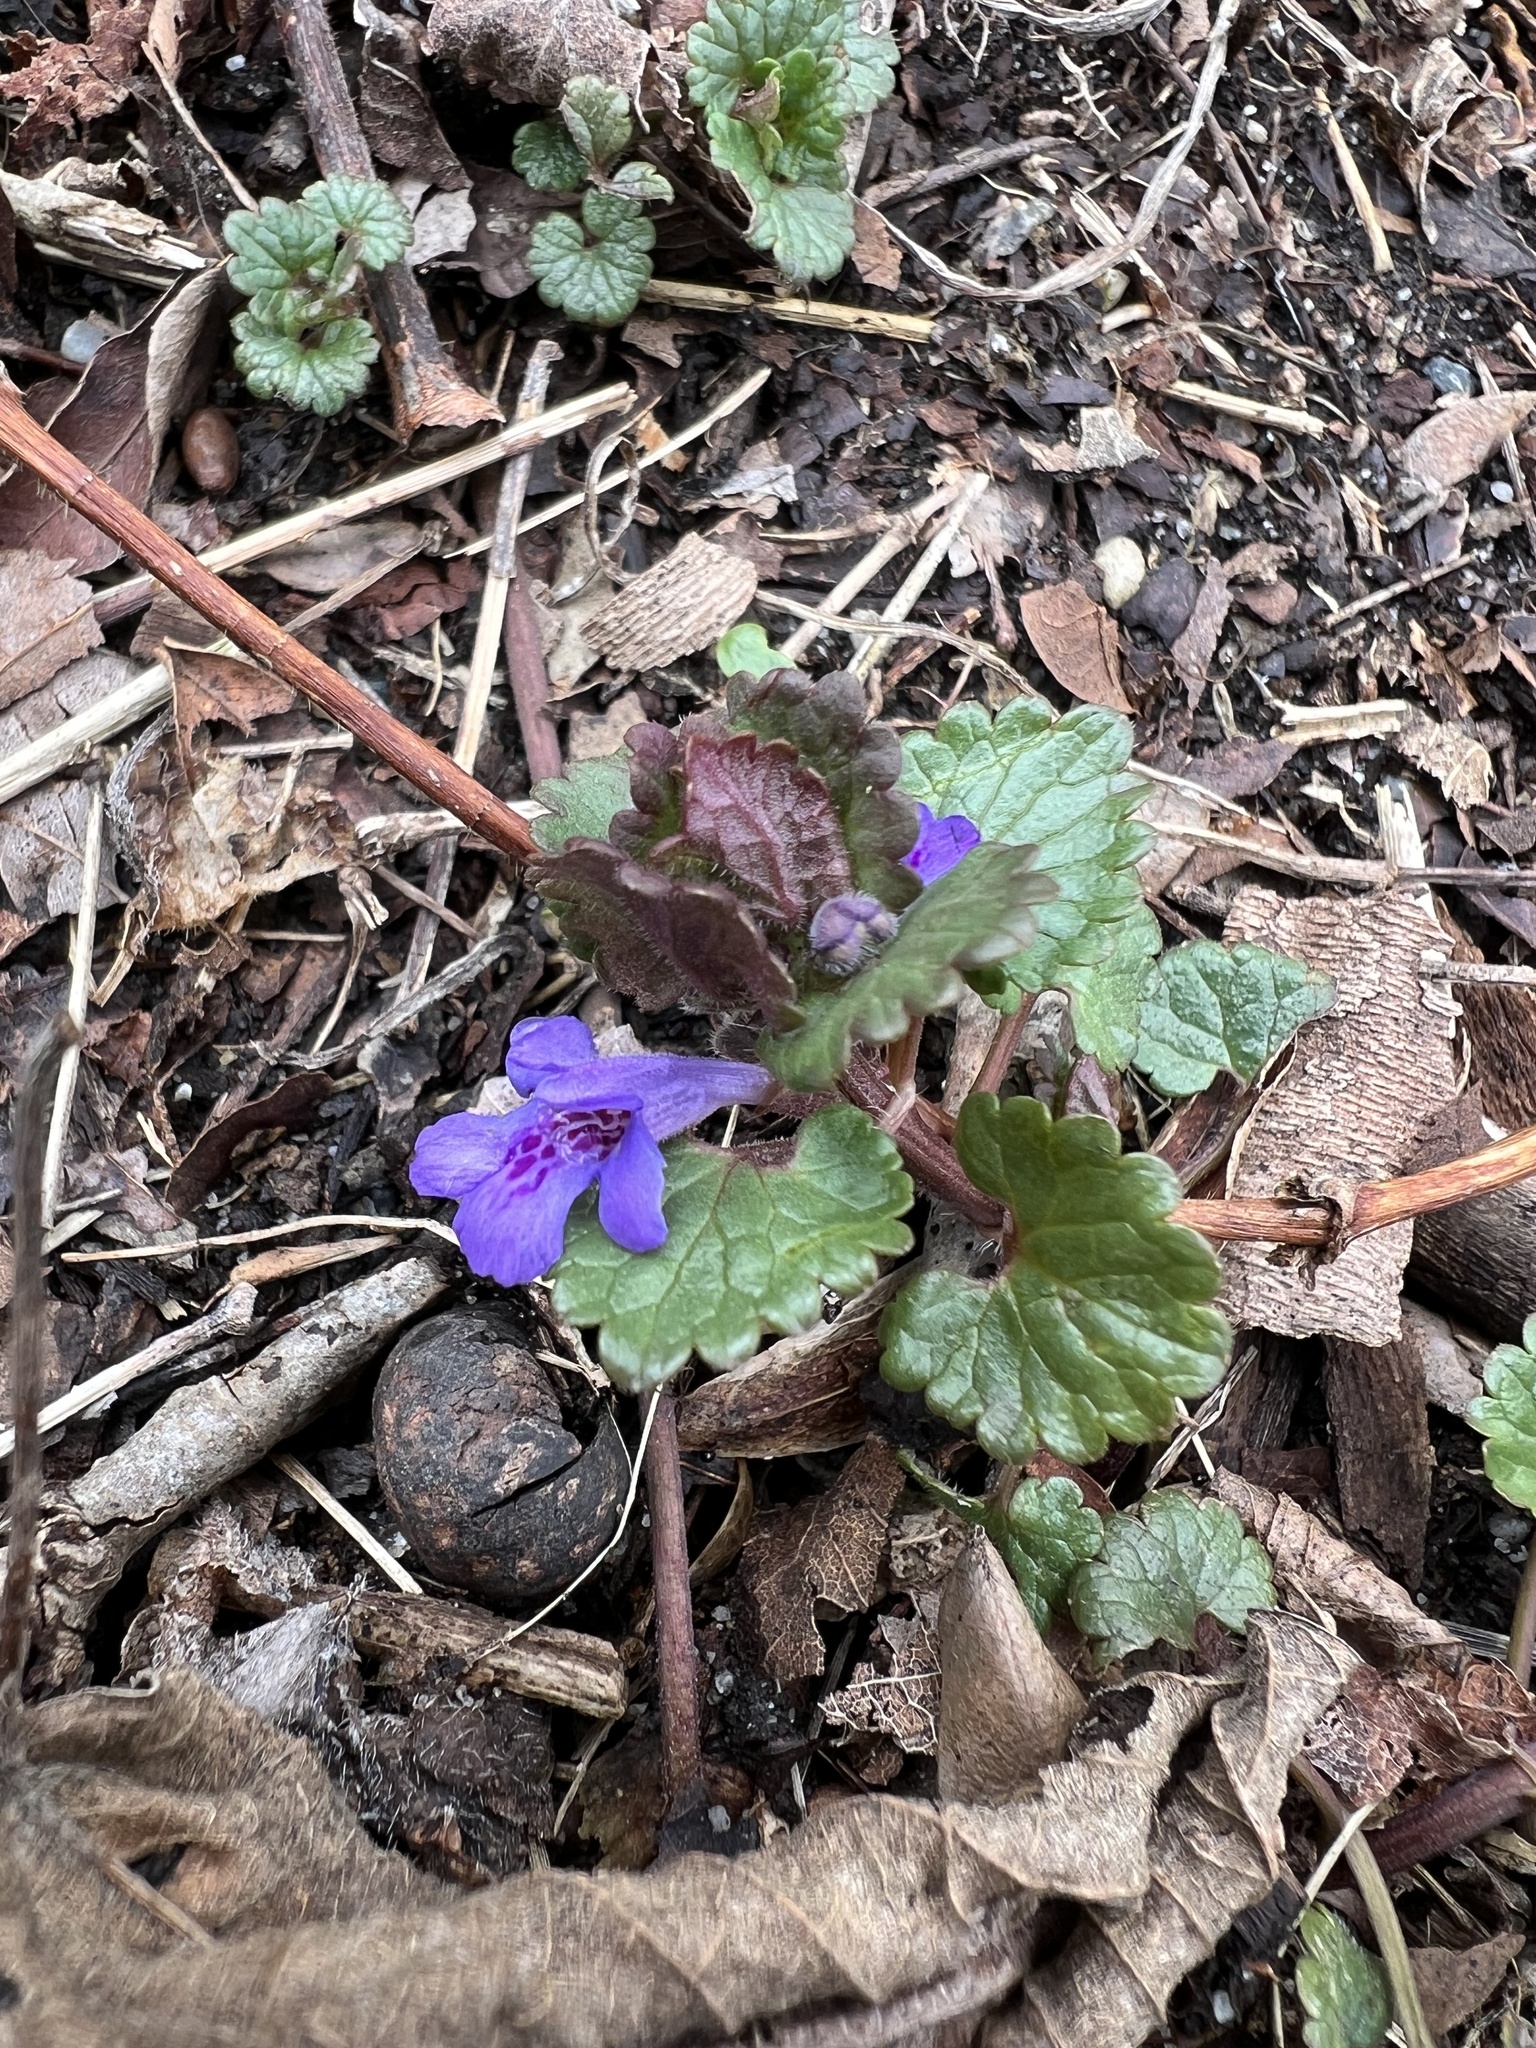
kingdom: Plantae
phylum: Tracheophyta
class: Magnoliopsida
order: Lamiales
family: Lamiaceae
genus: Glechoma
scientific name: Glechoma hederacea
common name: Ground ivy
